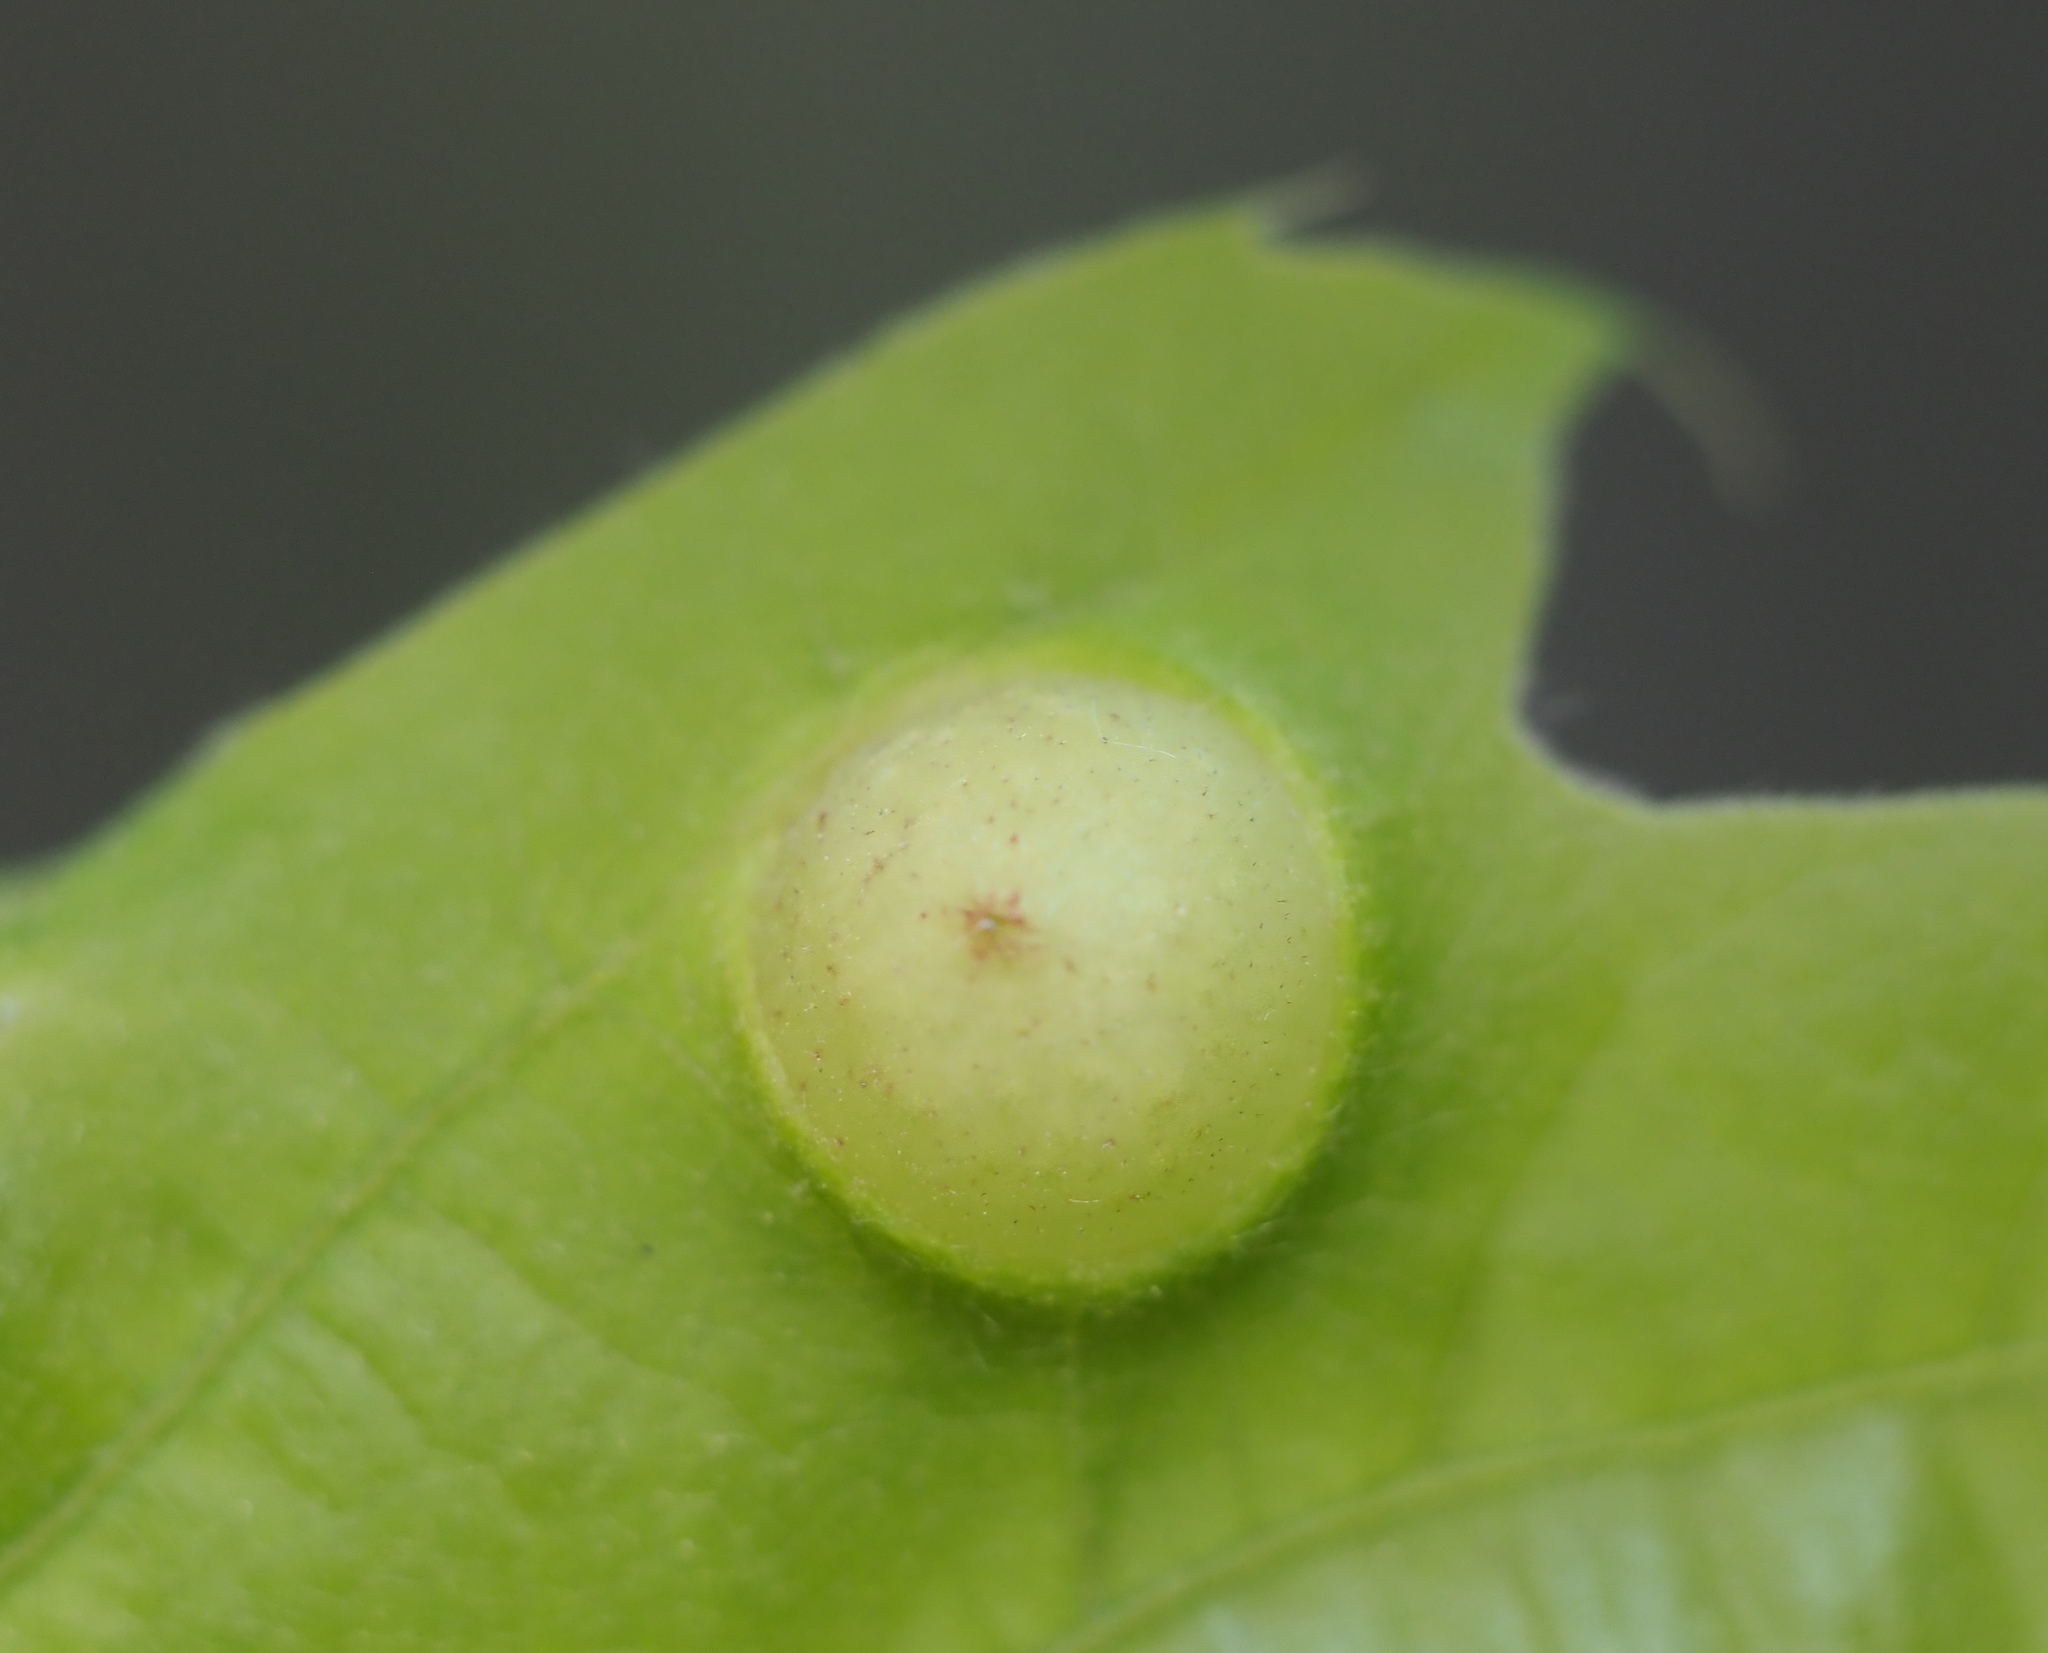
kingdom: Animalia
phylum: Arthropoda
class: Insecta
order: Hymenoptera
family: Cynipidae
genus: Amphibolips
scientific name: Amphibolips
